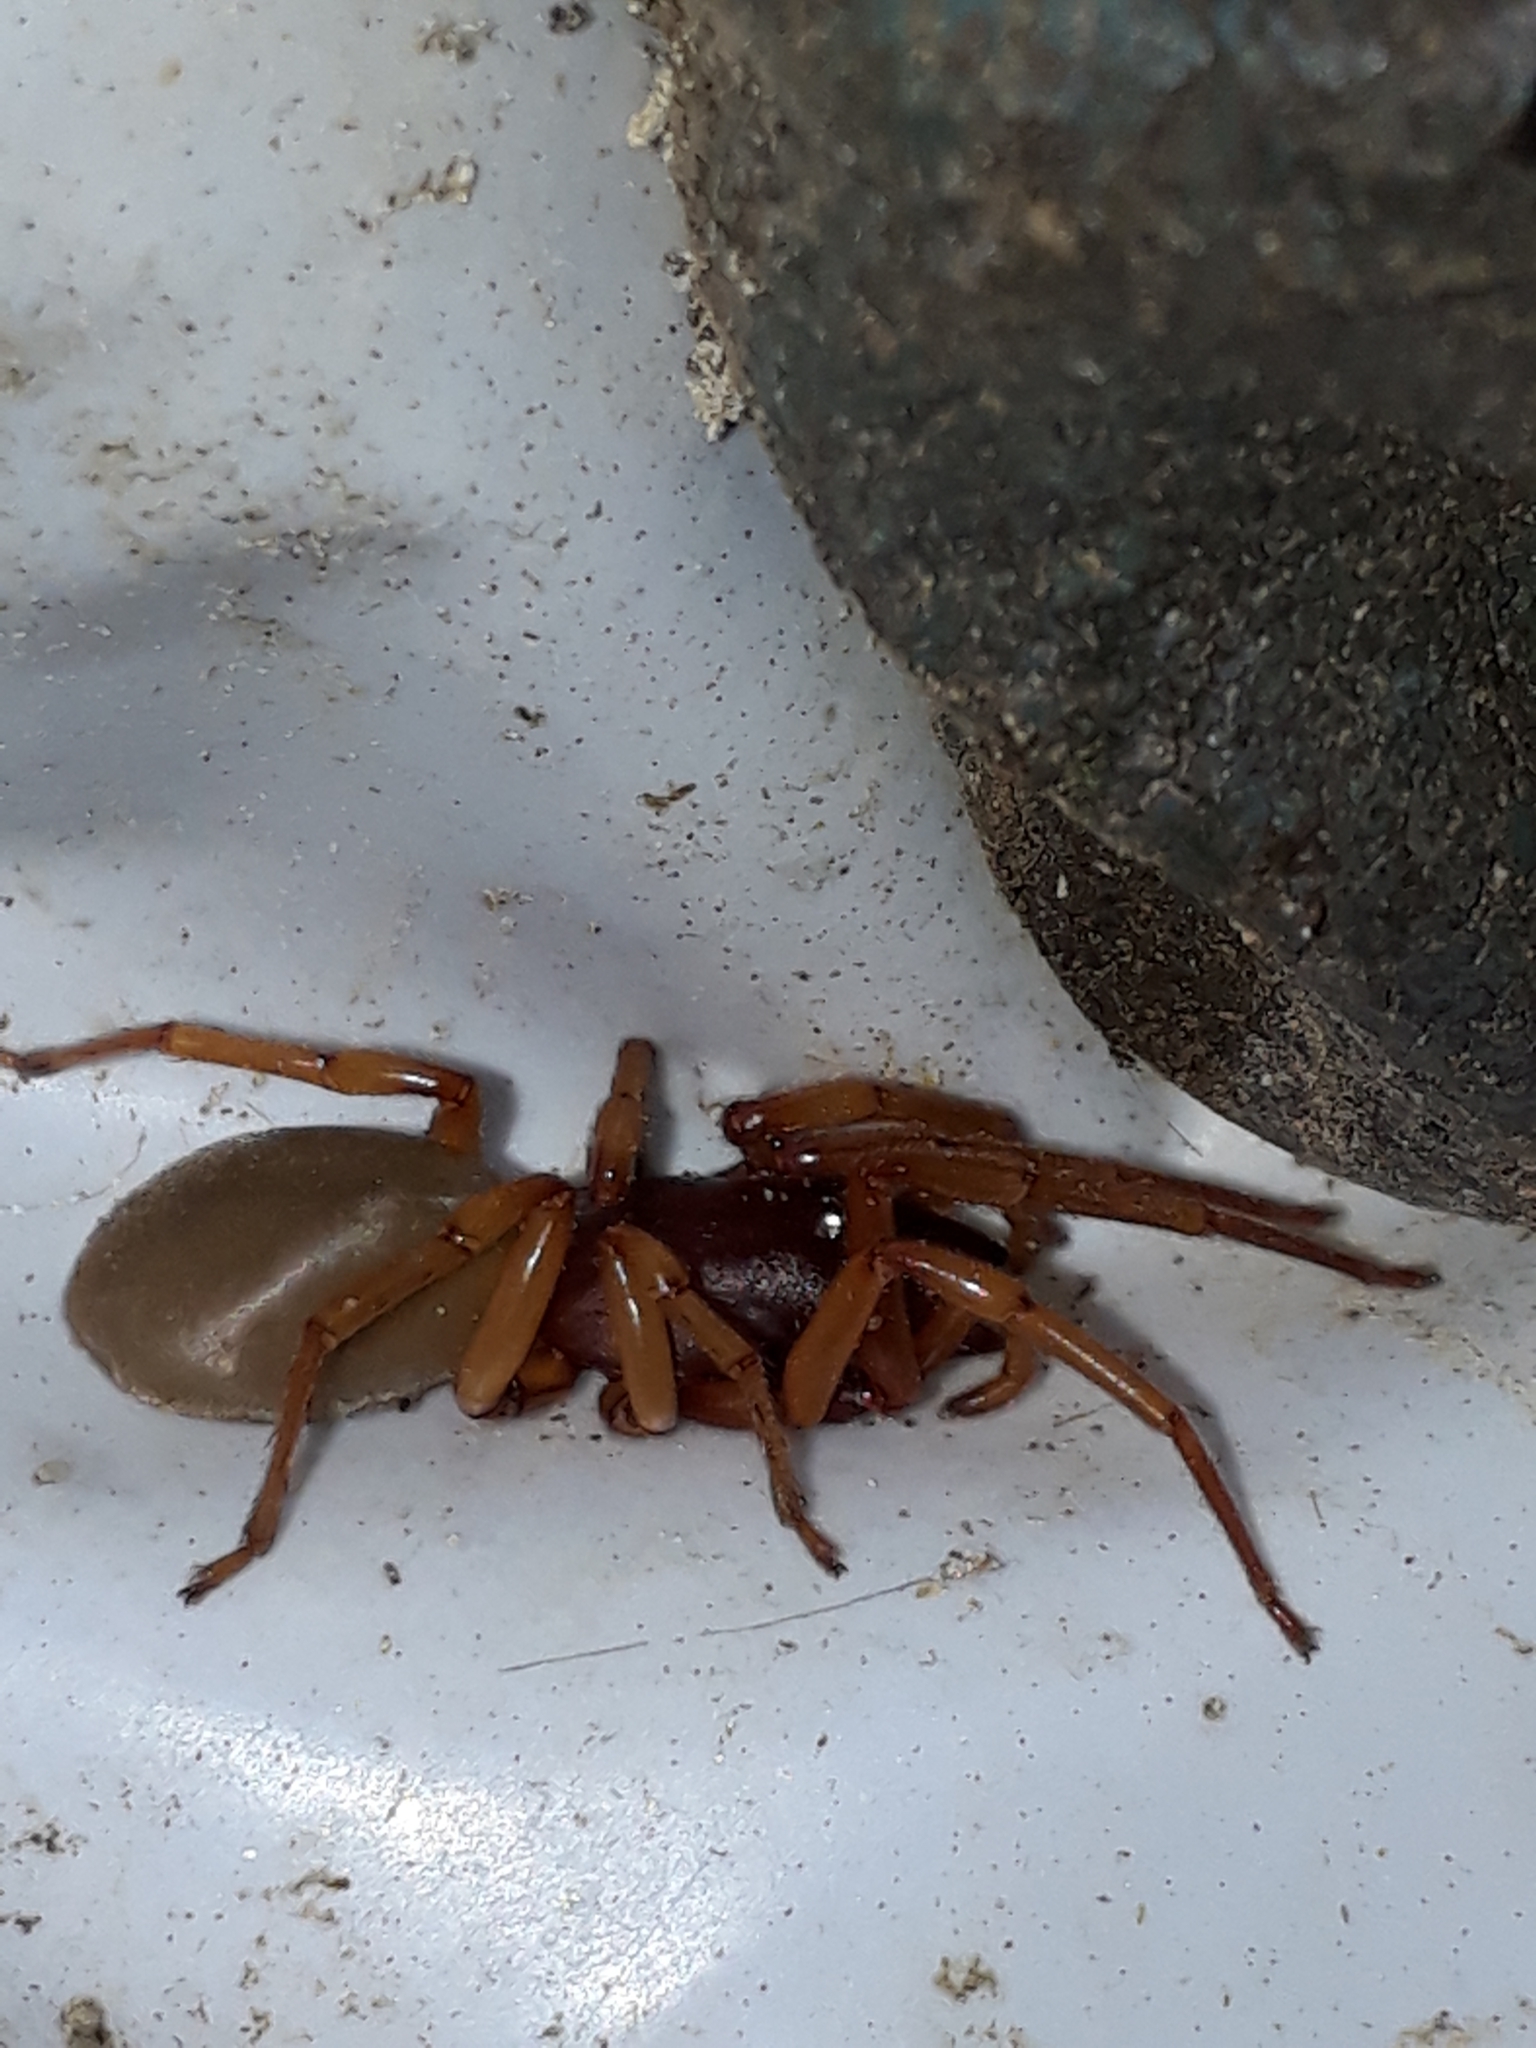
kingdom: Animalia
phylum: Arthropoda
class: Arachnida
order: Araneae
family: Dysderidae
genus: Dysdera
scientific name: Dysdera crocata
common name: Woodlouse spider
